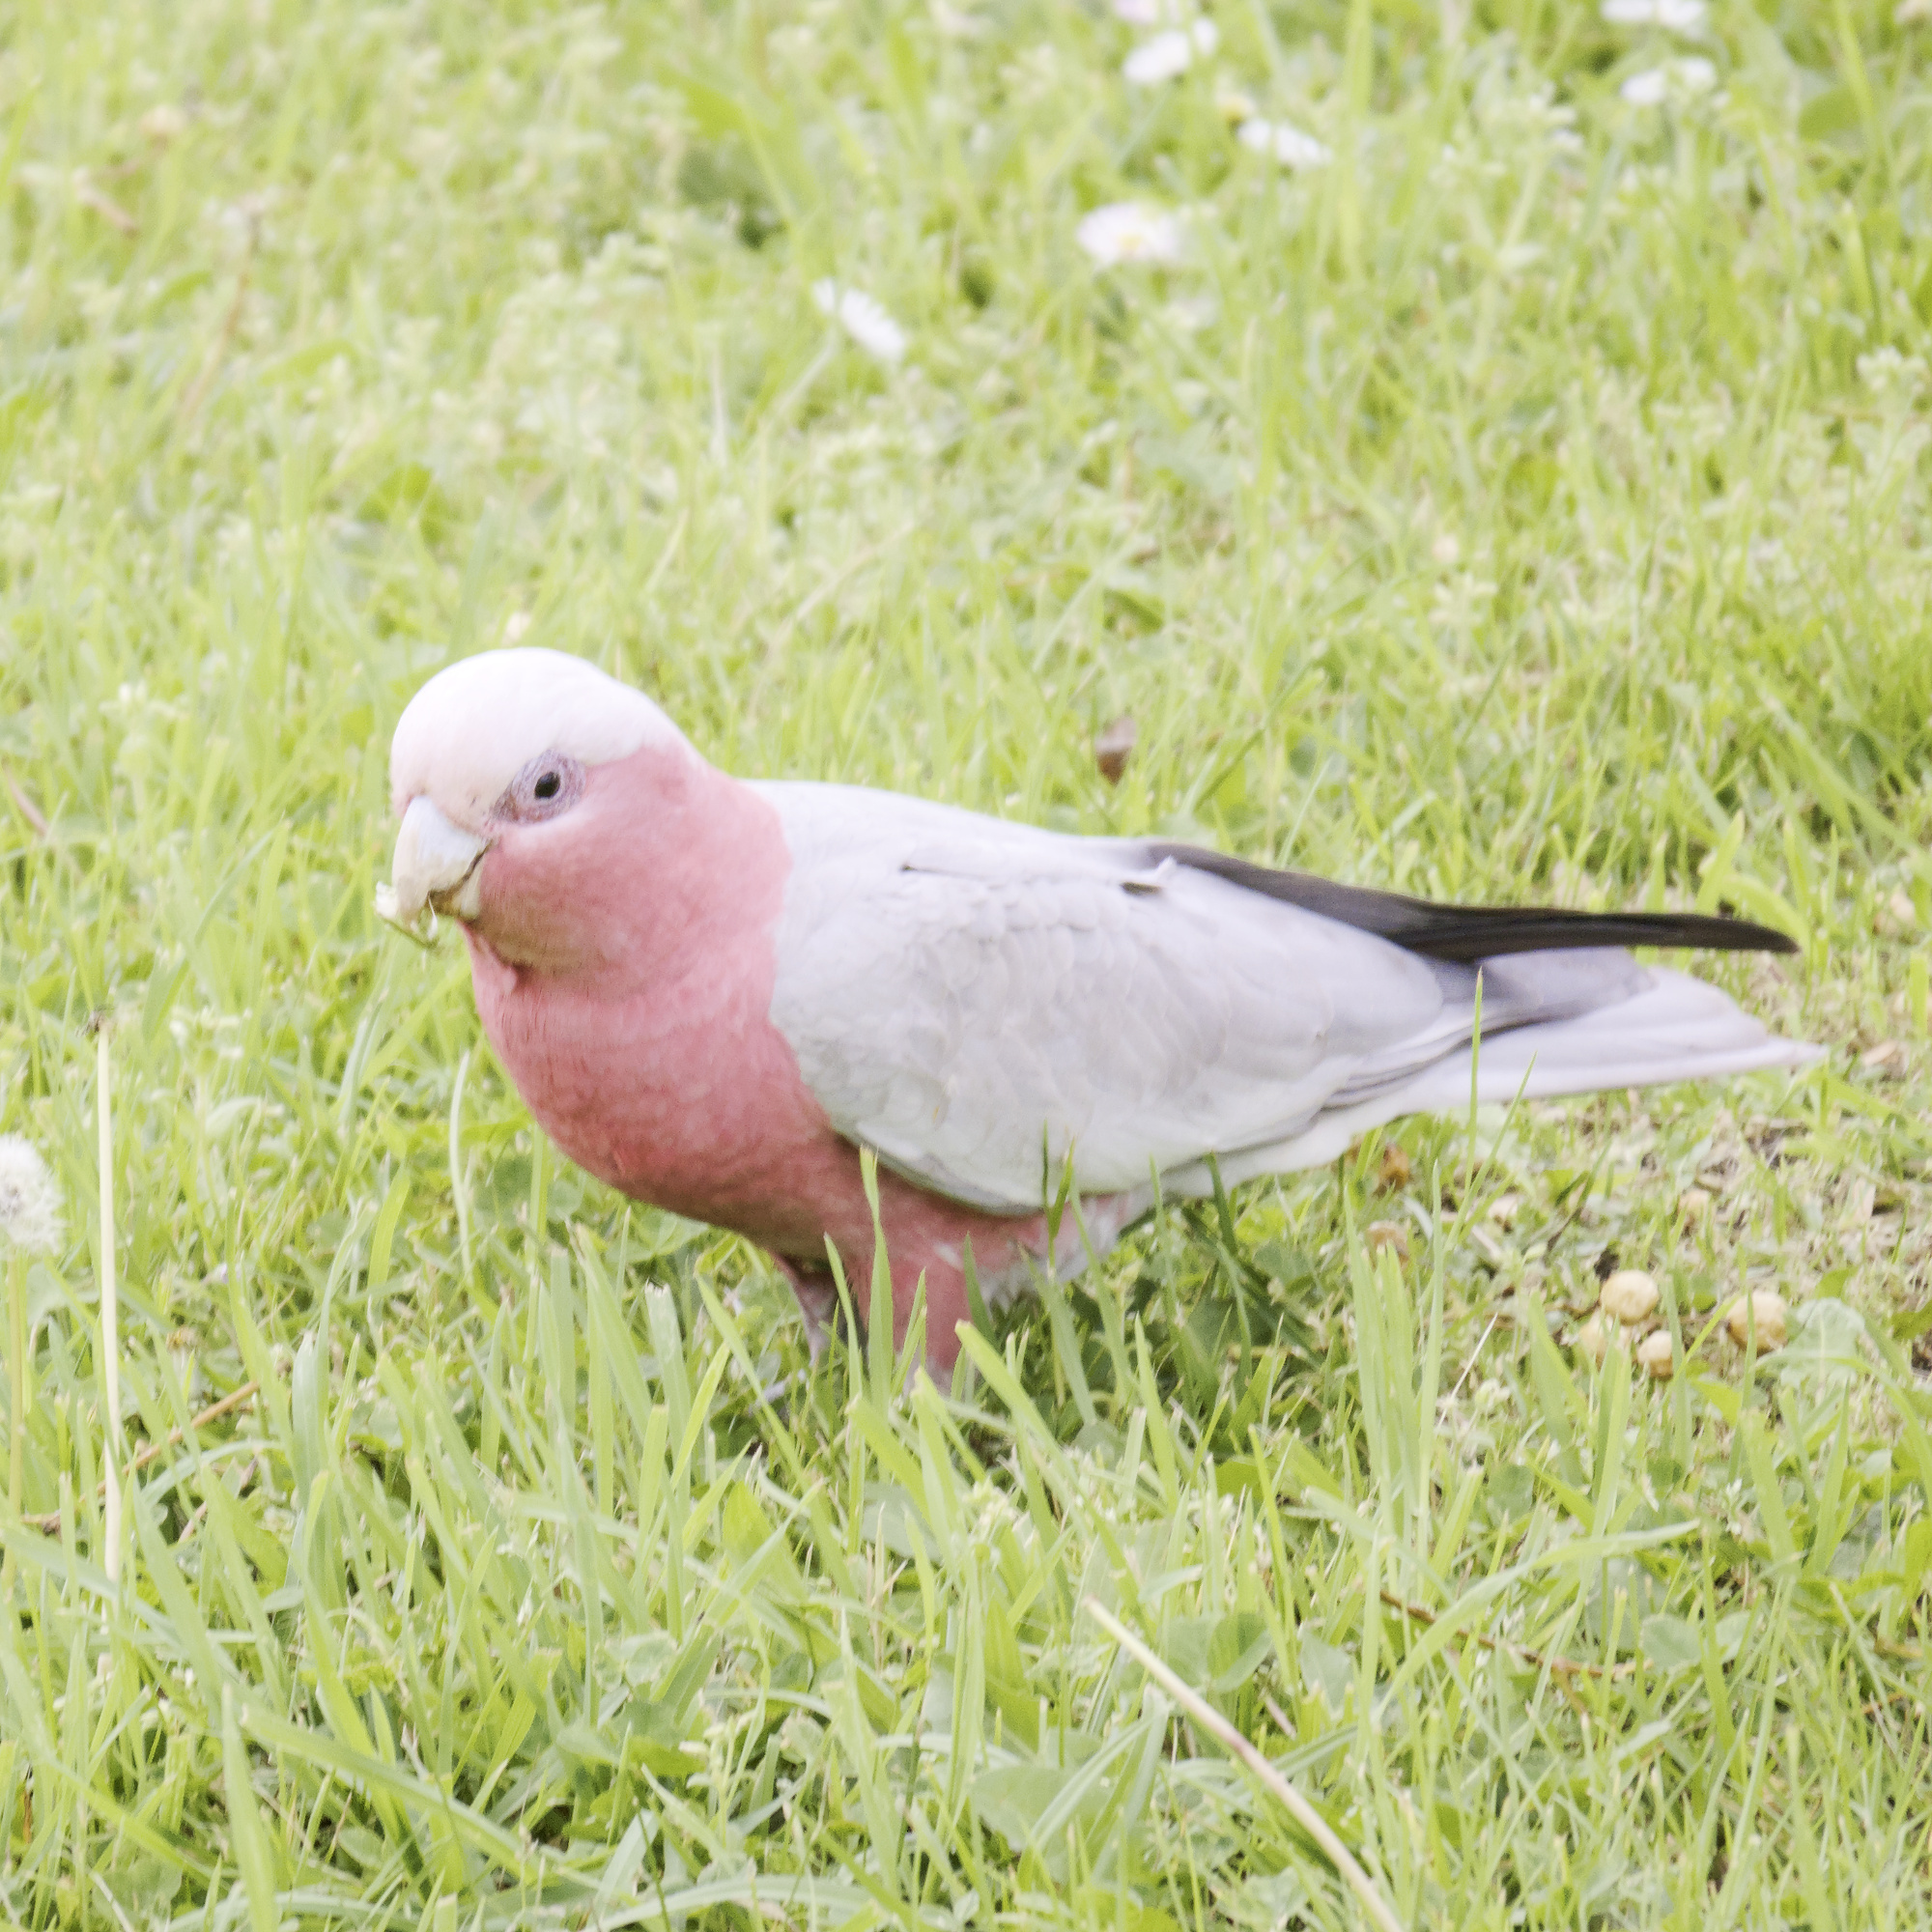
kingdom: Animalia
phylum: Chordata
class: Aves
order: Psittaciformes
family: Psittacidae
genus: Eolophus
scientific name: Eolophus roseicapilla
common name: Galah
